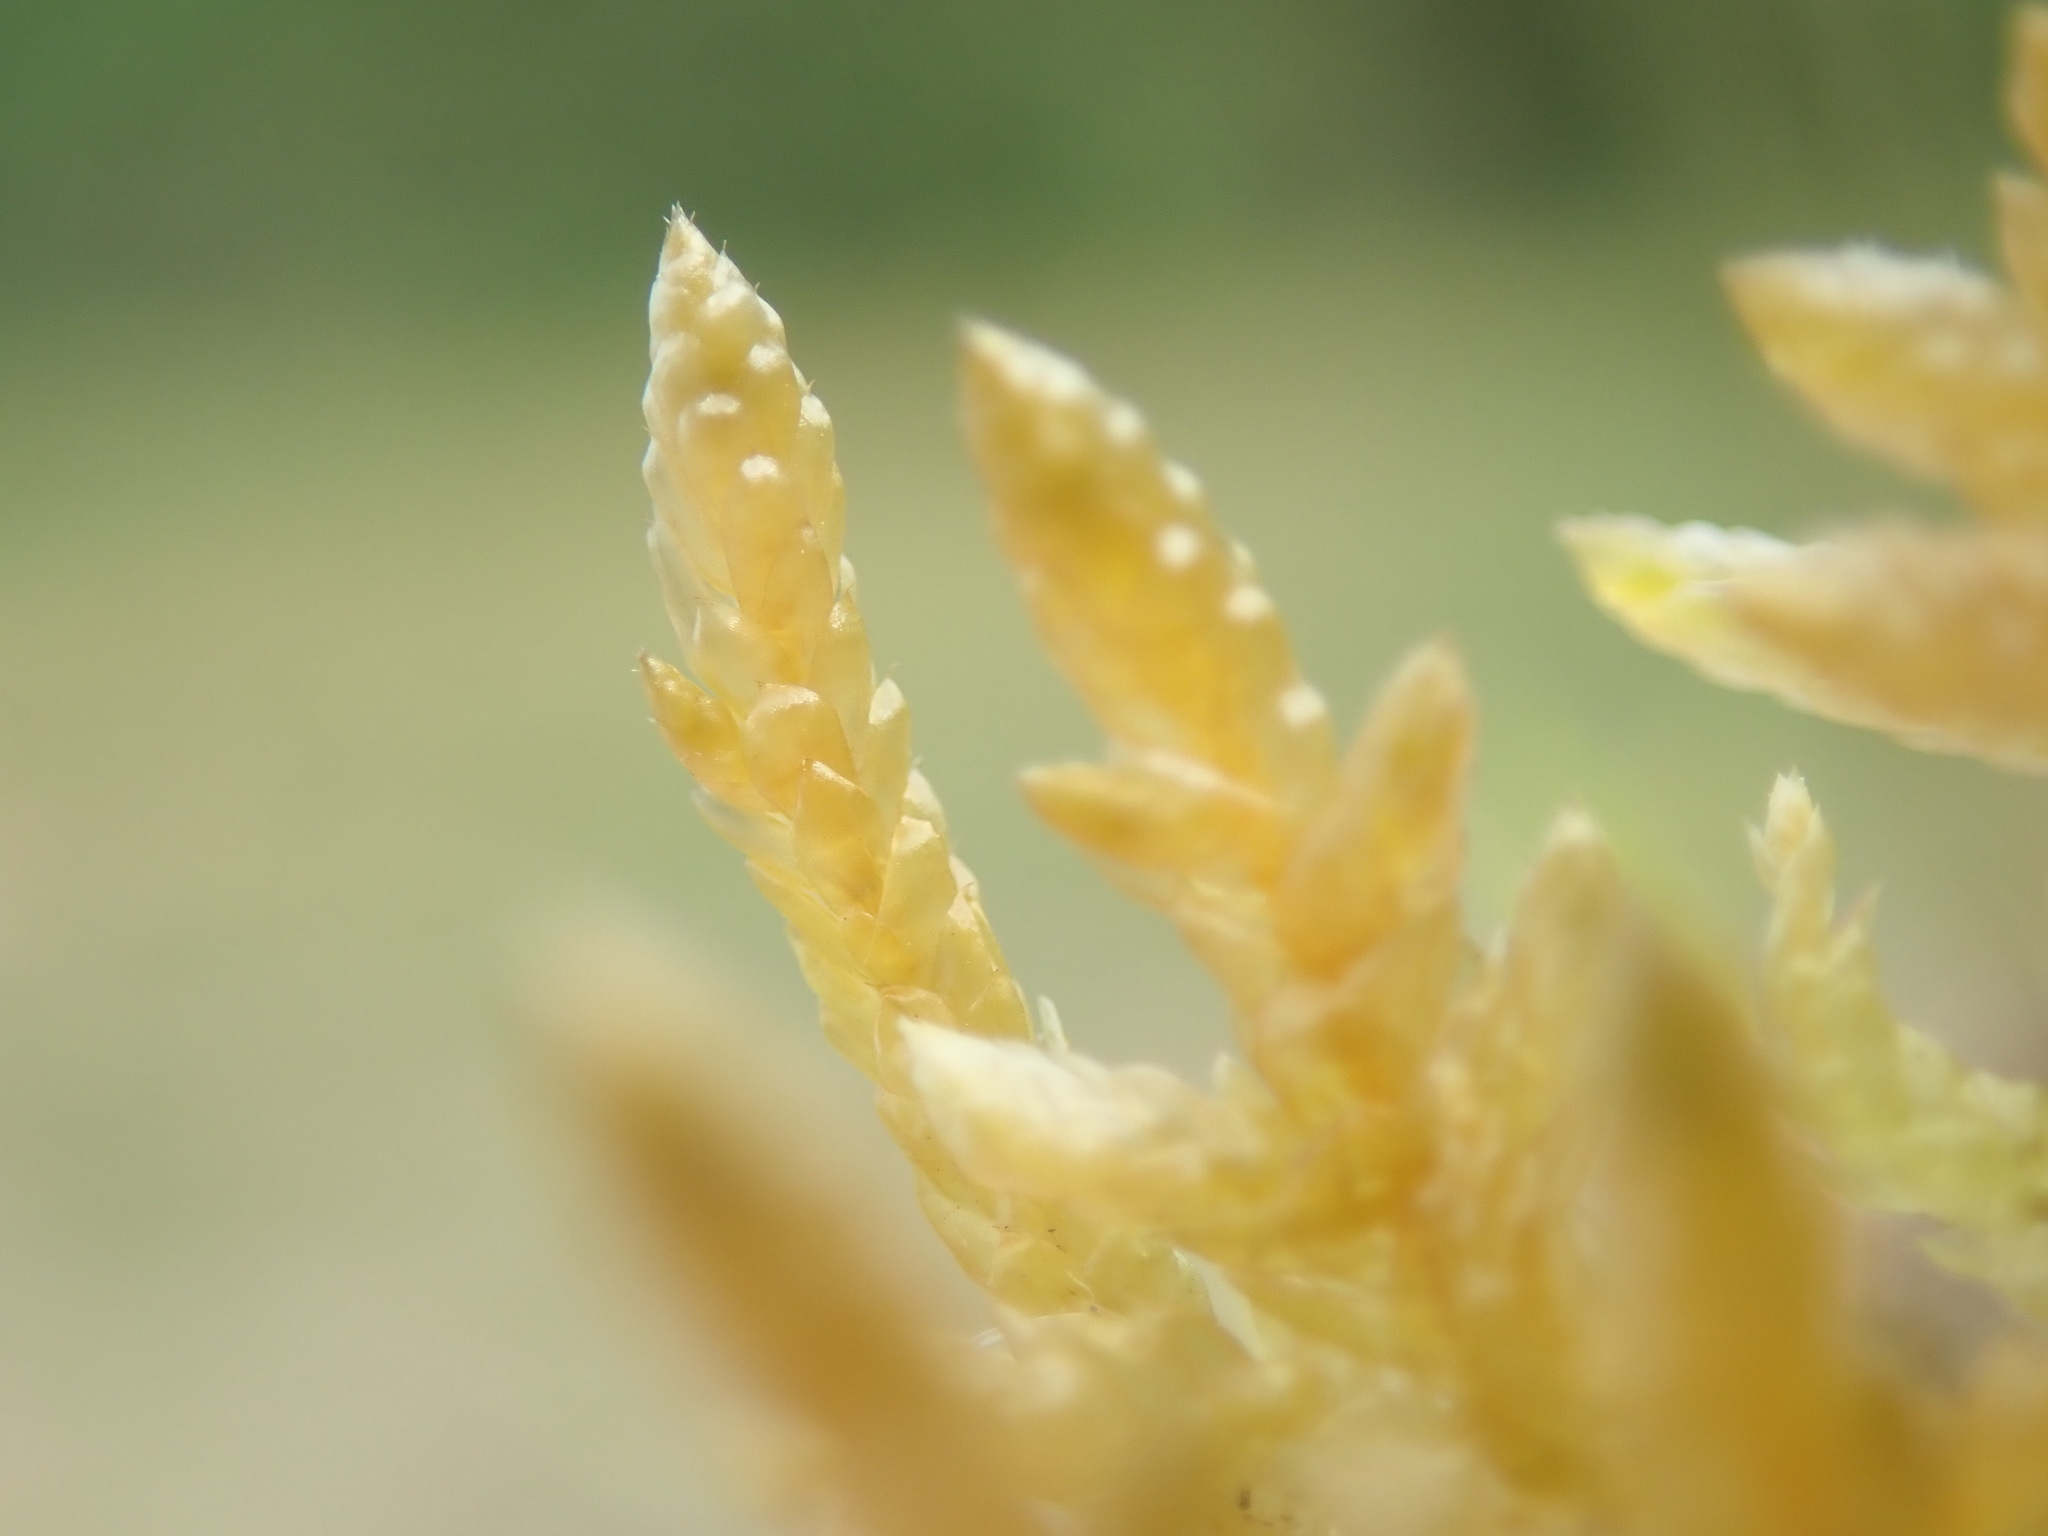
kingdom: Plantae
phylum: Bryophyta
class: Bryopsida
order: Hypnales
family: Brachytheciaceae
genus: Pseudoscleropodium
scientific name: Pseudoscleropodium purum
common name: Neat feather-moss
